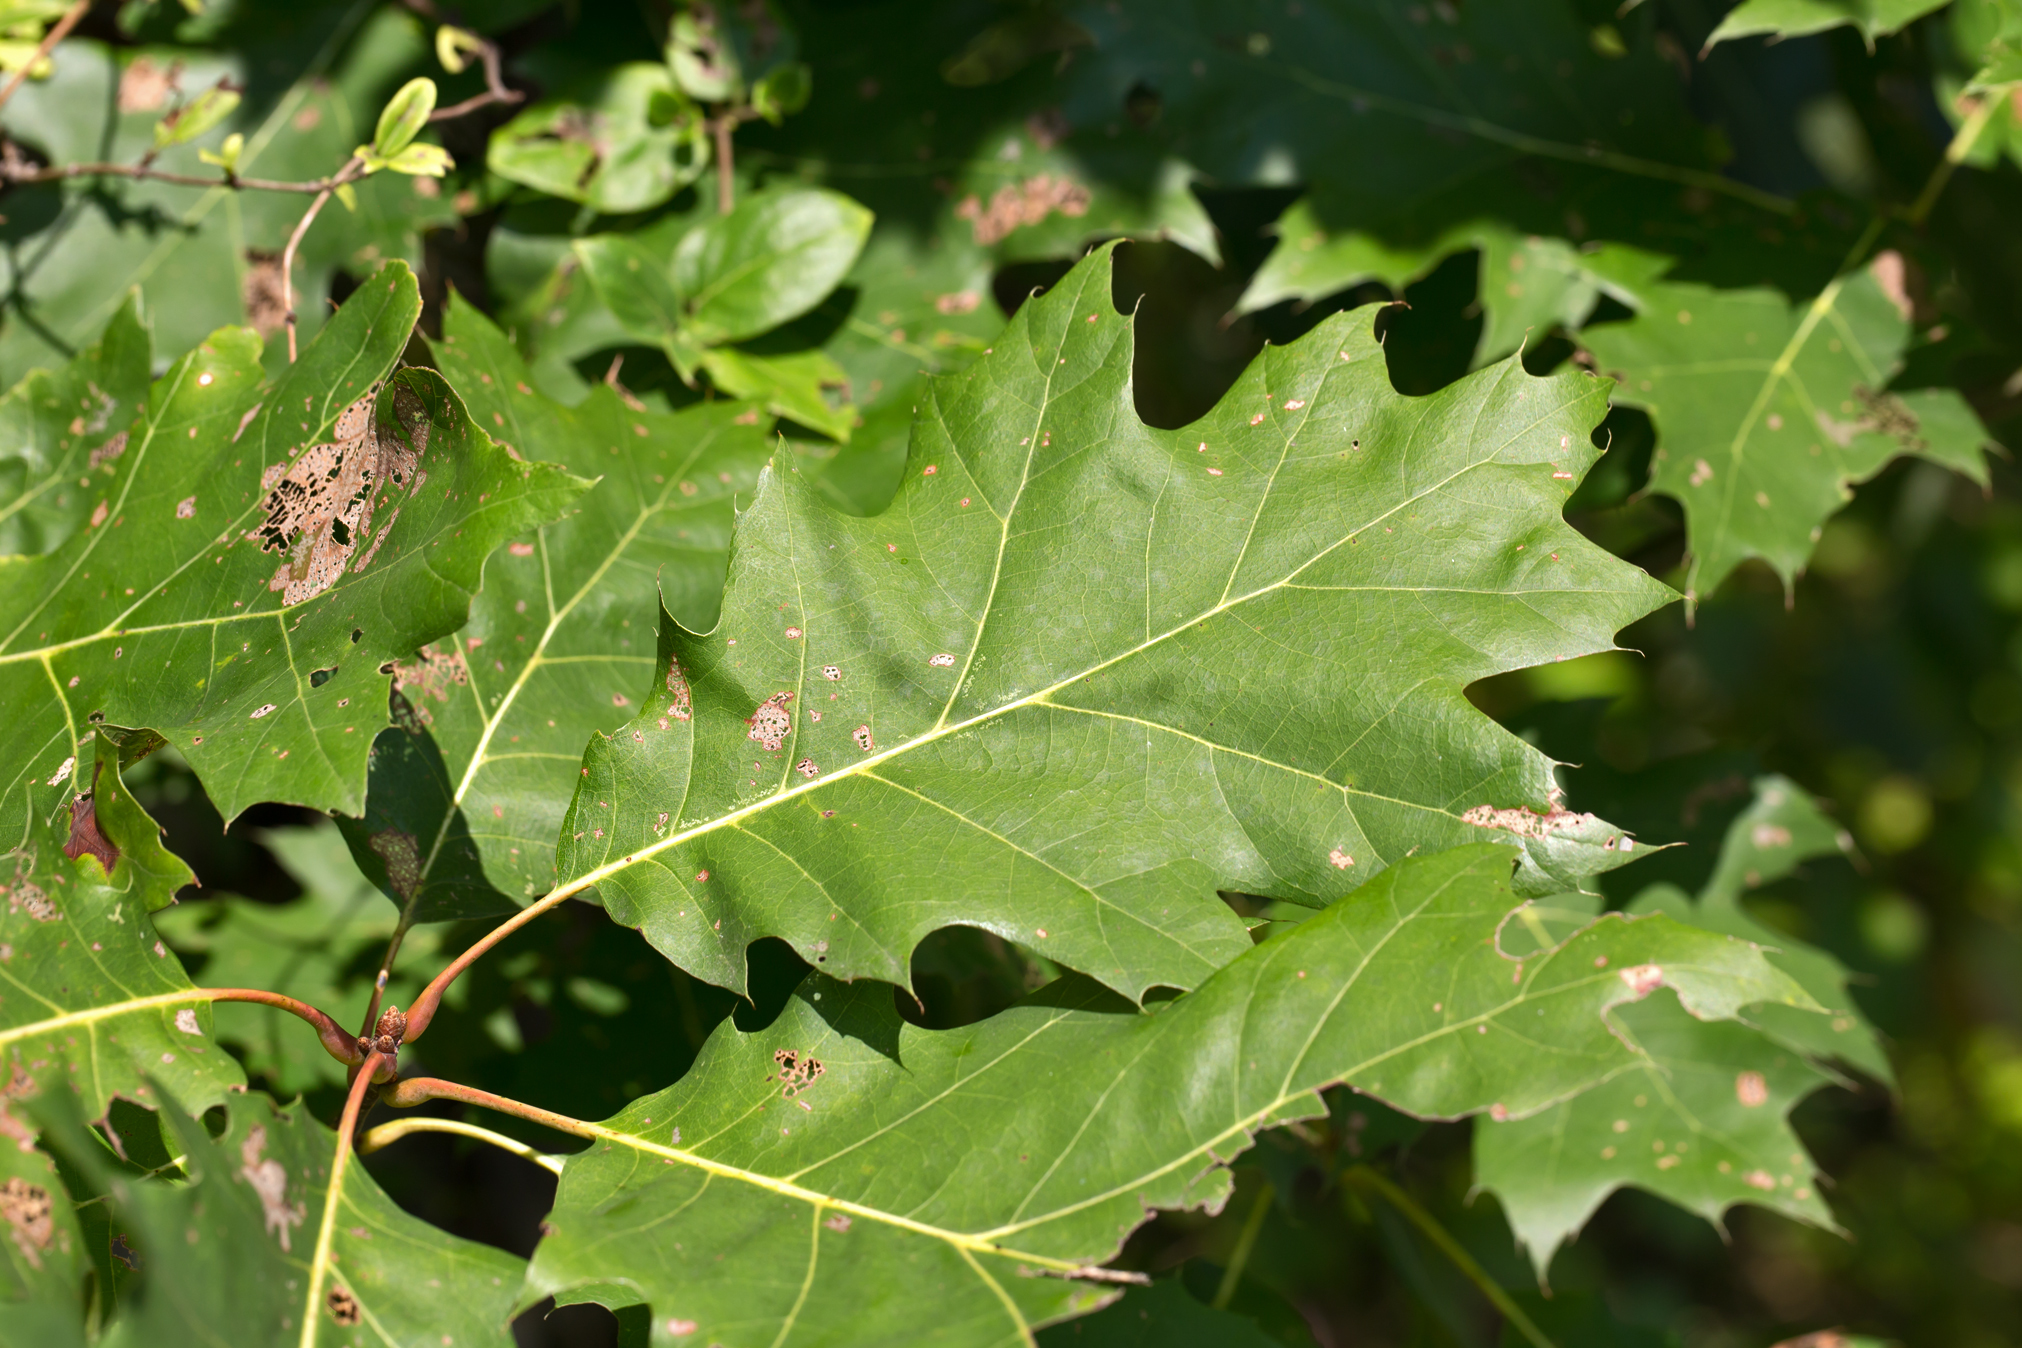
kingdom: Plantae
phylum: Tracheophyta
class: Magnoliopsida
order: Fagales
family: Fagaceae
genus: Quercus
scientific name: Quercus rubra
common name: Red oak
